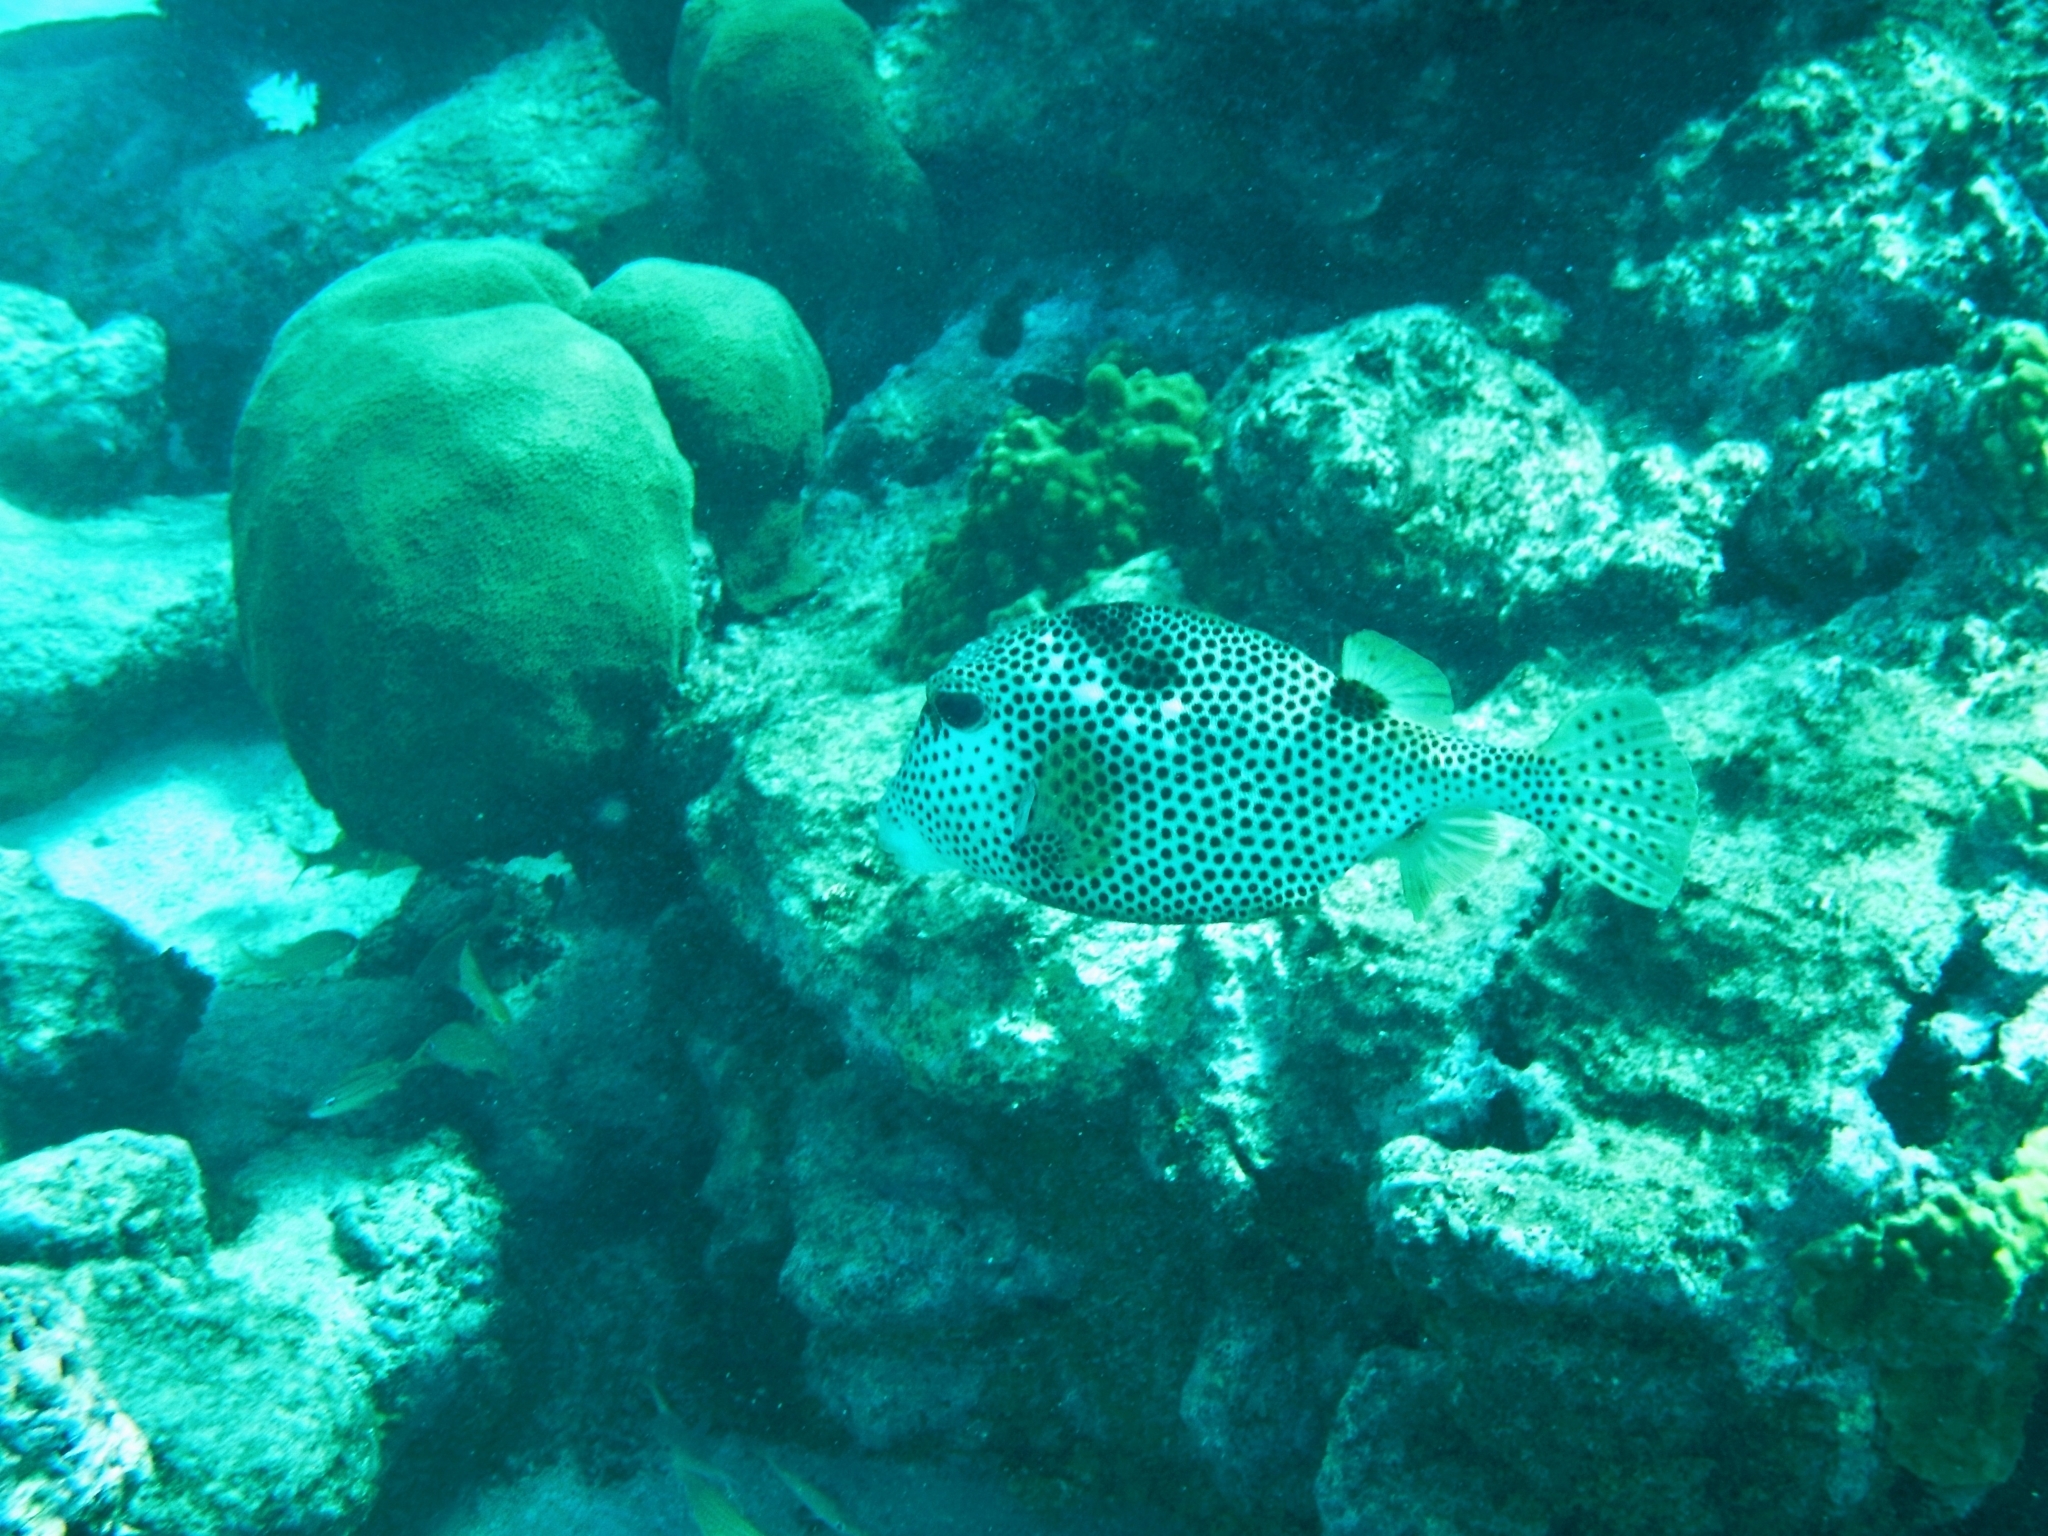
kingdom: Animalia
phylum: Chordata
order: Tetraodontiformes
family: Ostraciidae
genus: Lactophrys
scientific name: Lactophrys bicaudalis
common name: Spotted trunkfish
